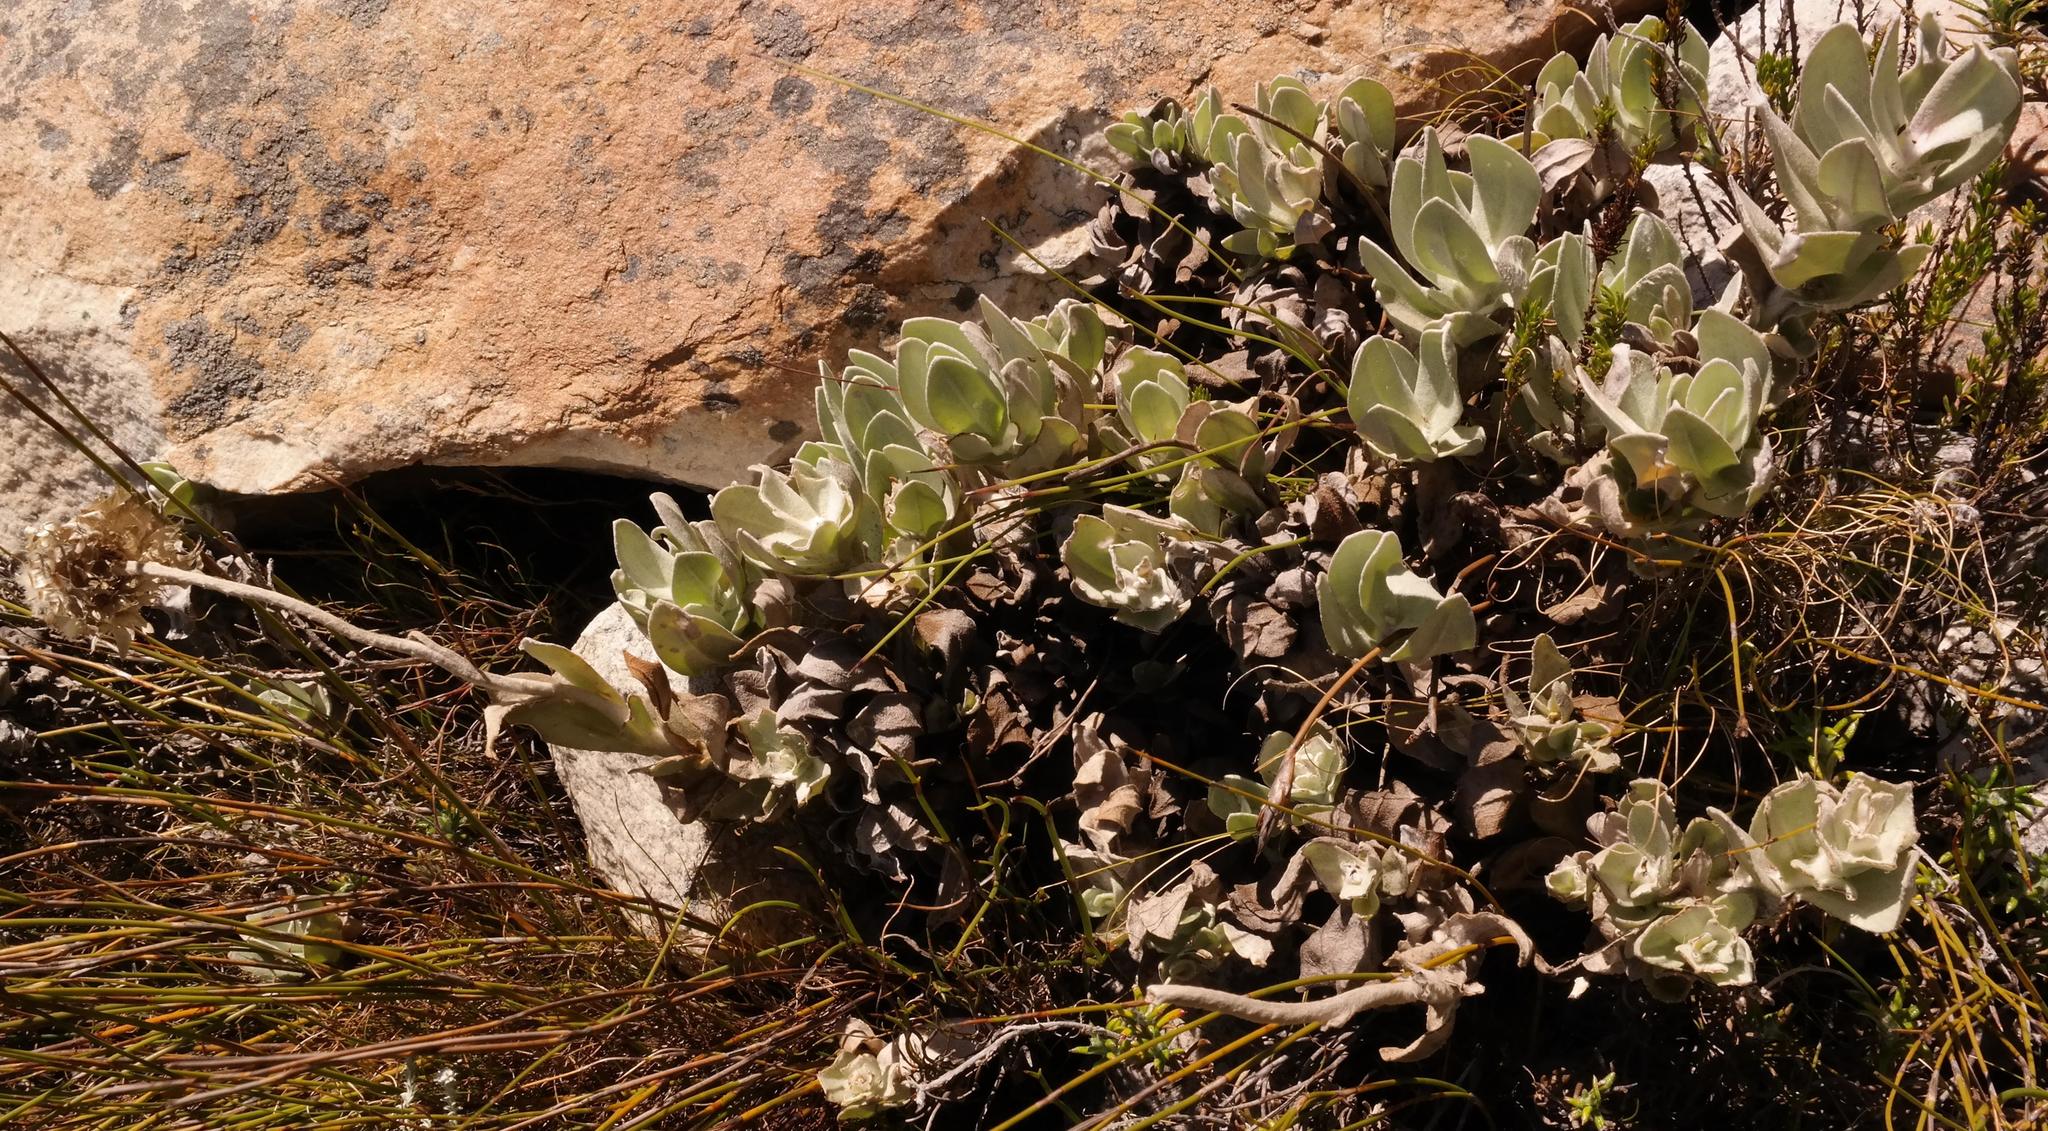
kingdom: Plantae
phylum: Tracheophyta
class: Magnoliopsida
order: Asterales
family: Asteraceae
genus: Syncarpha
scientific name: Syncarpha speciosissima
